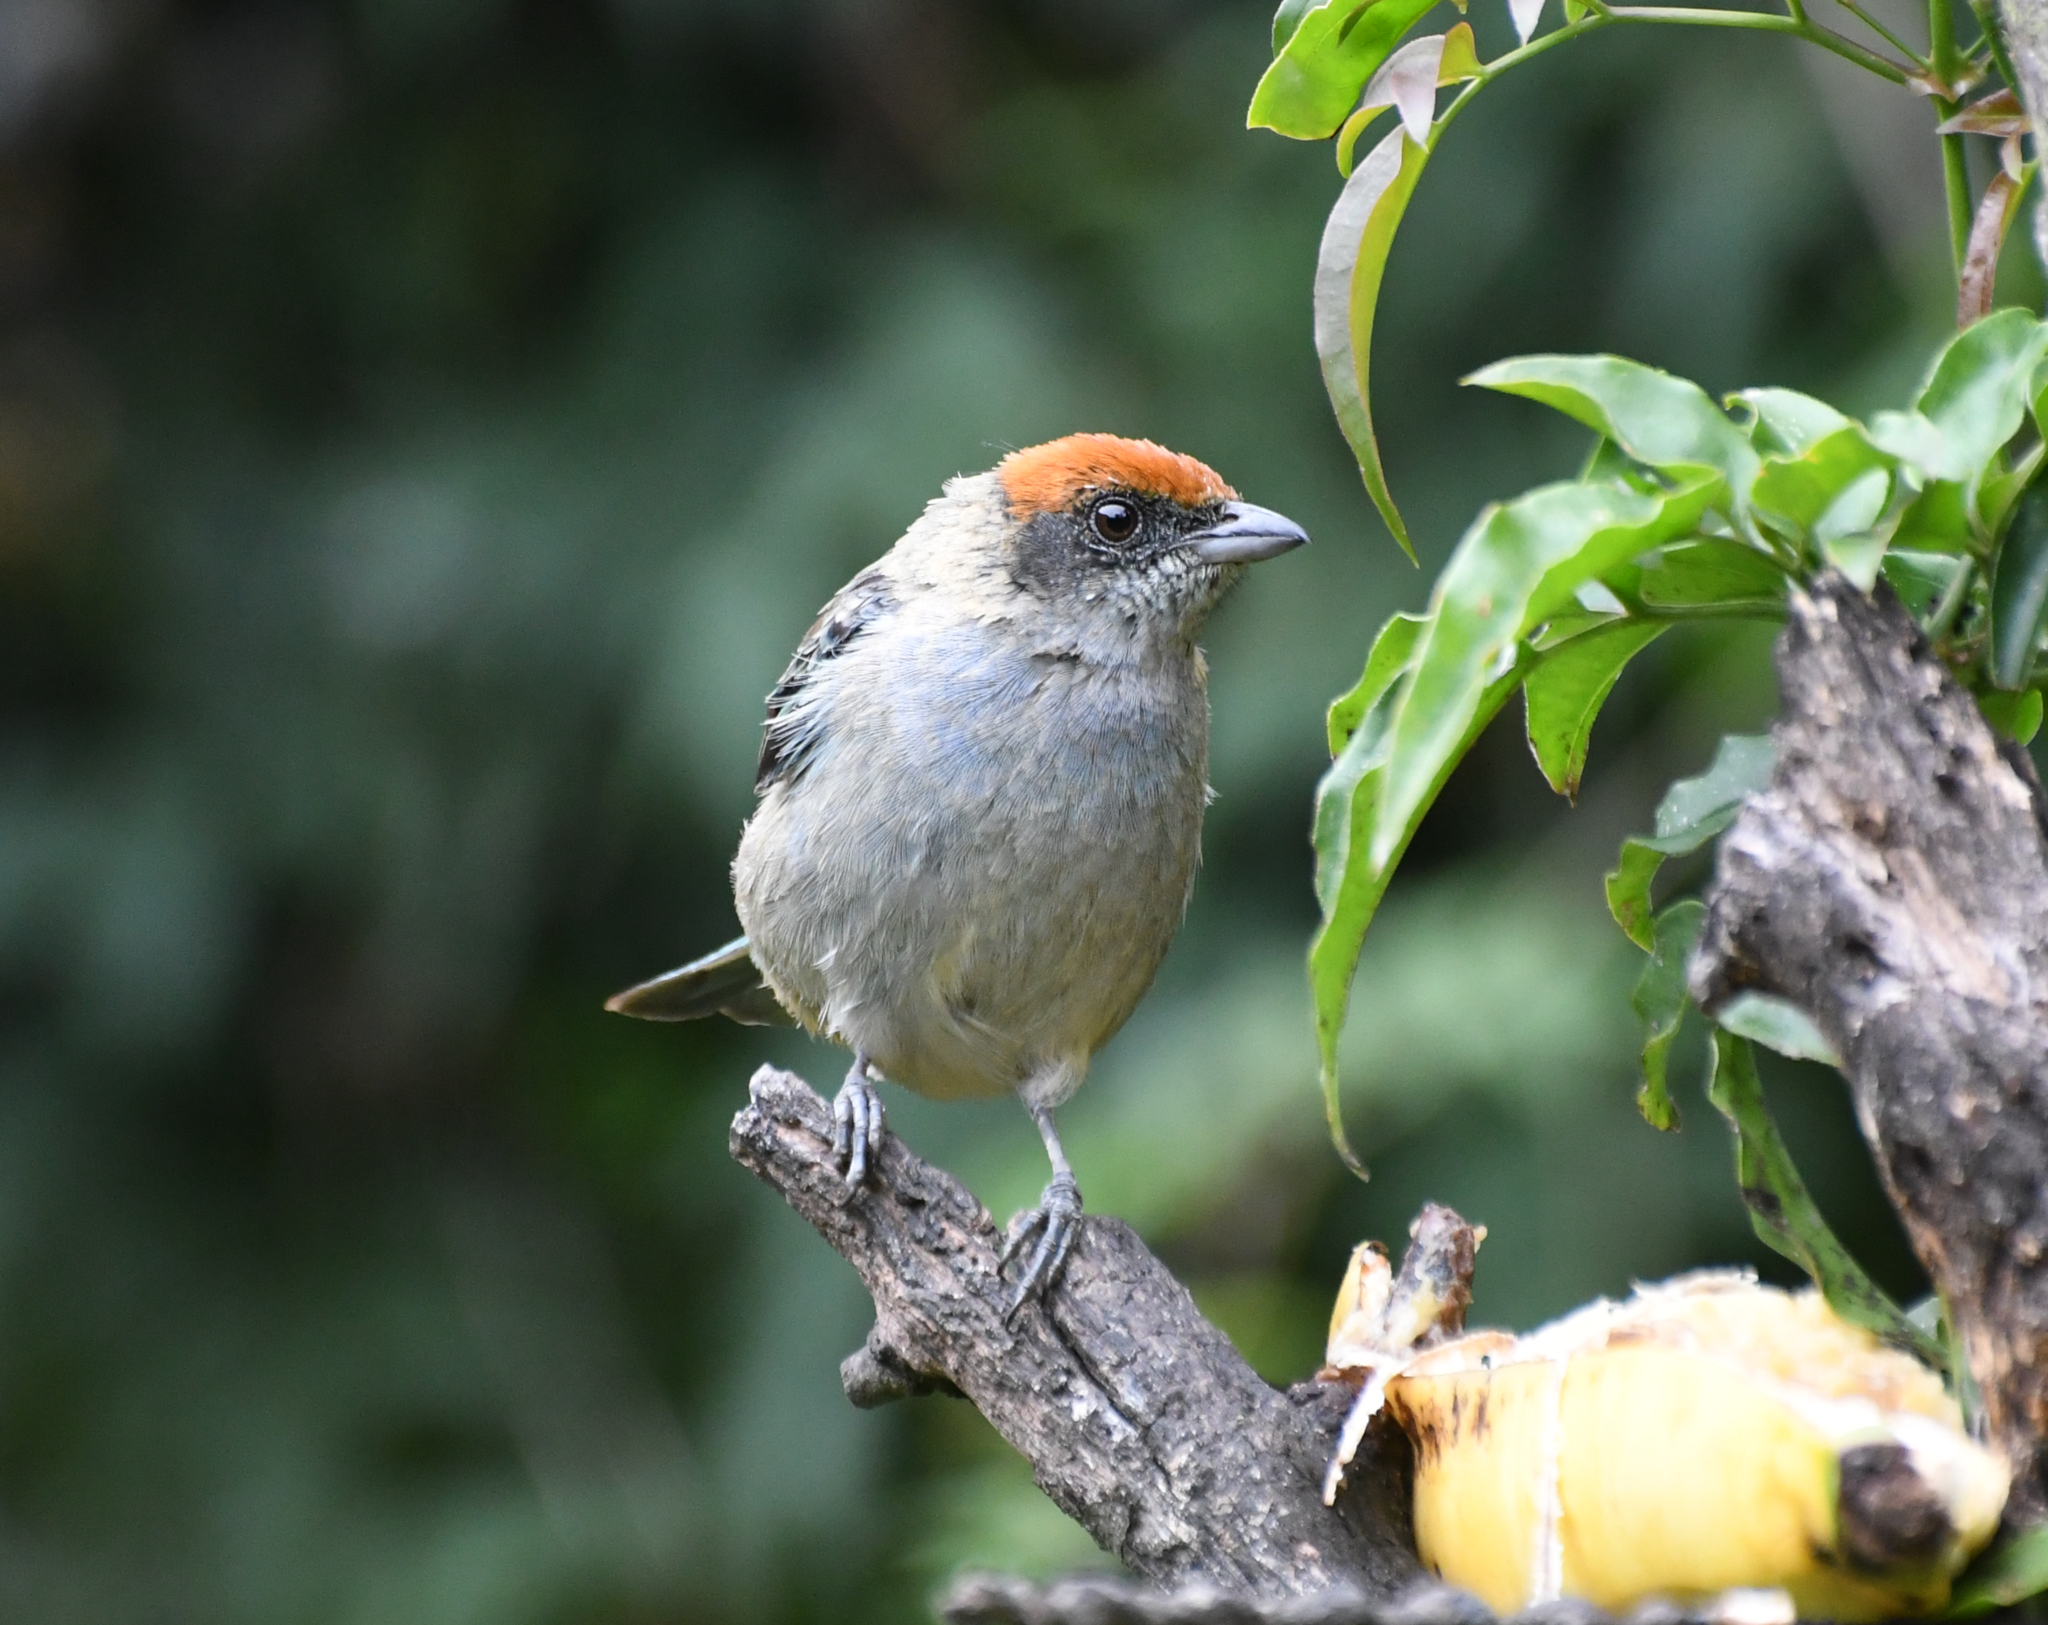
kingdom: Animalia
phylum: Chordata
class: Aves
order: Passeriformes
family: Thraupidae
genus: Stilpnia
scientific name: Stilpnia vitriolina
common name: Scrub tanager
